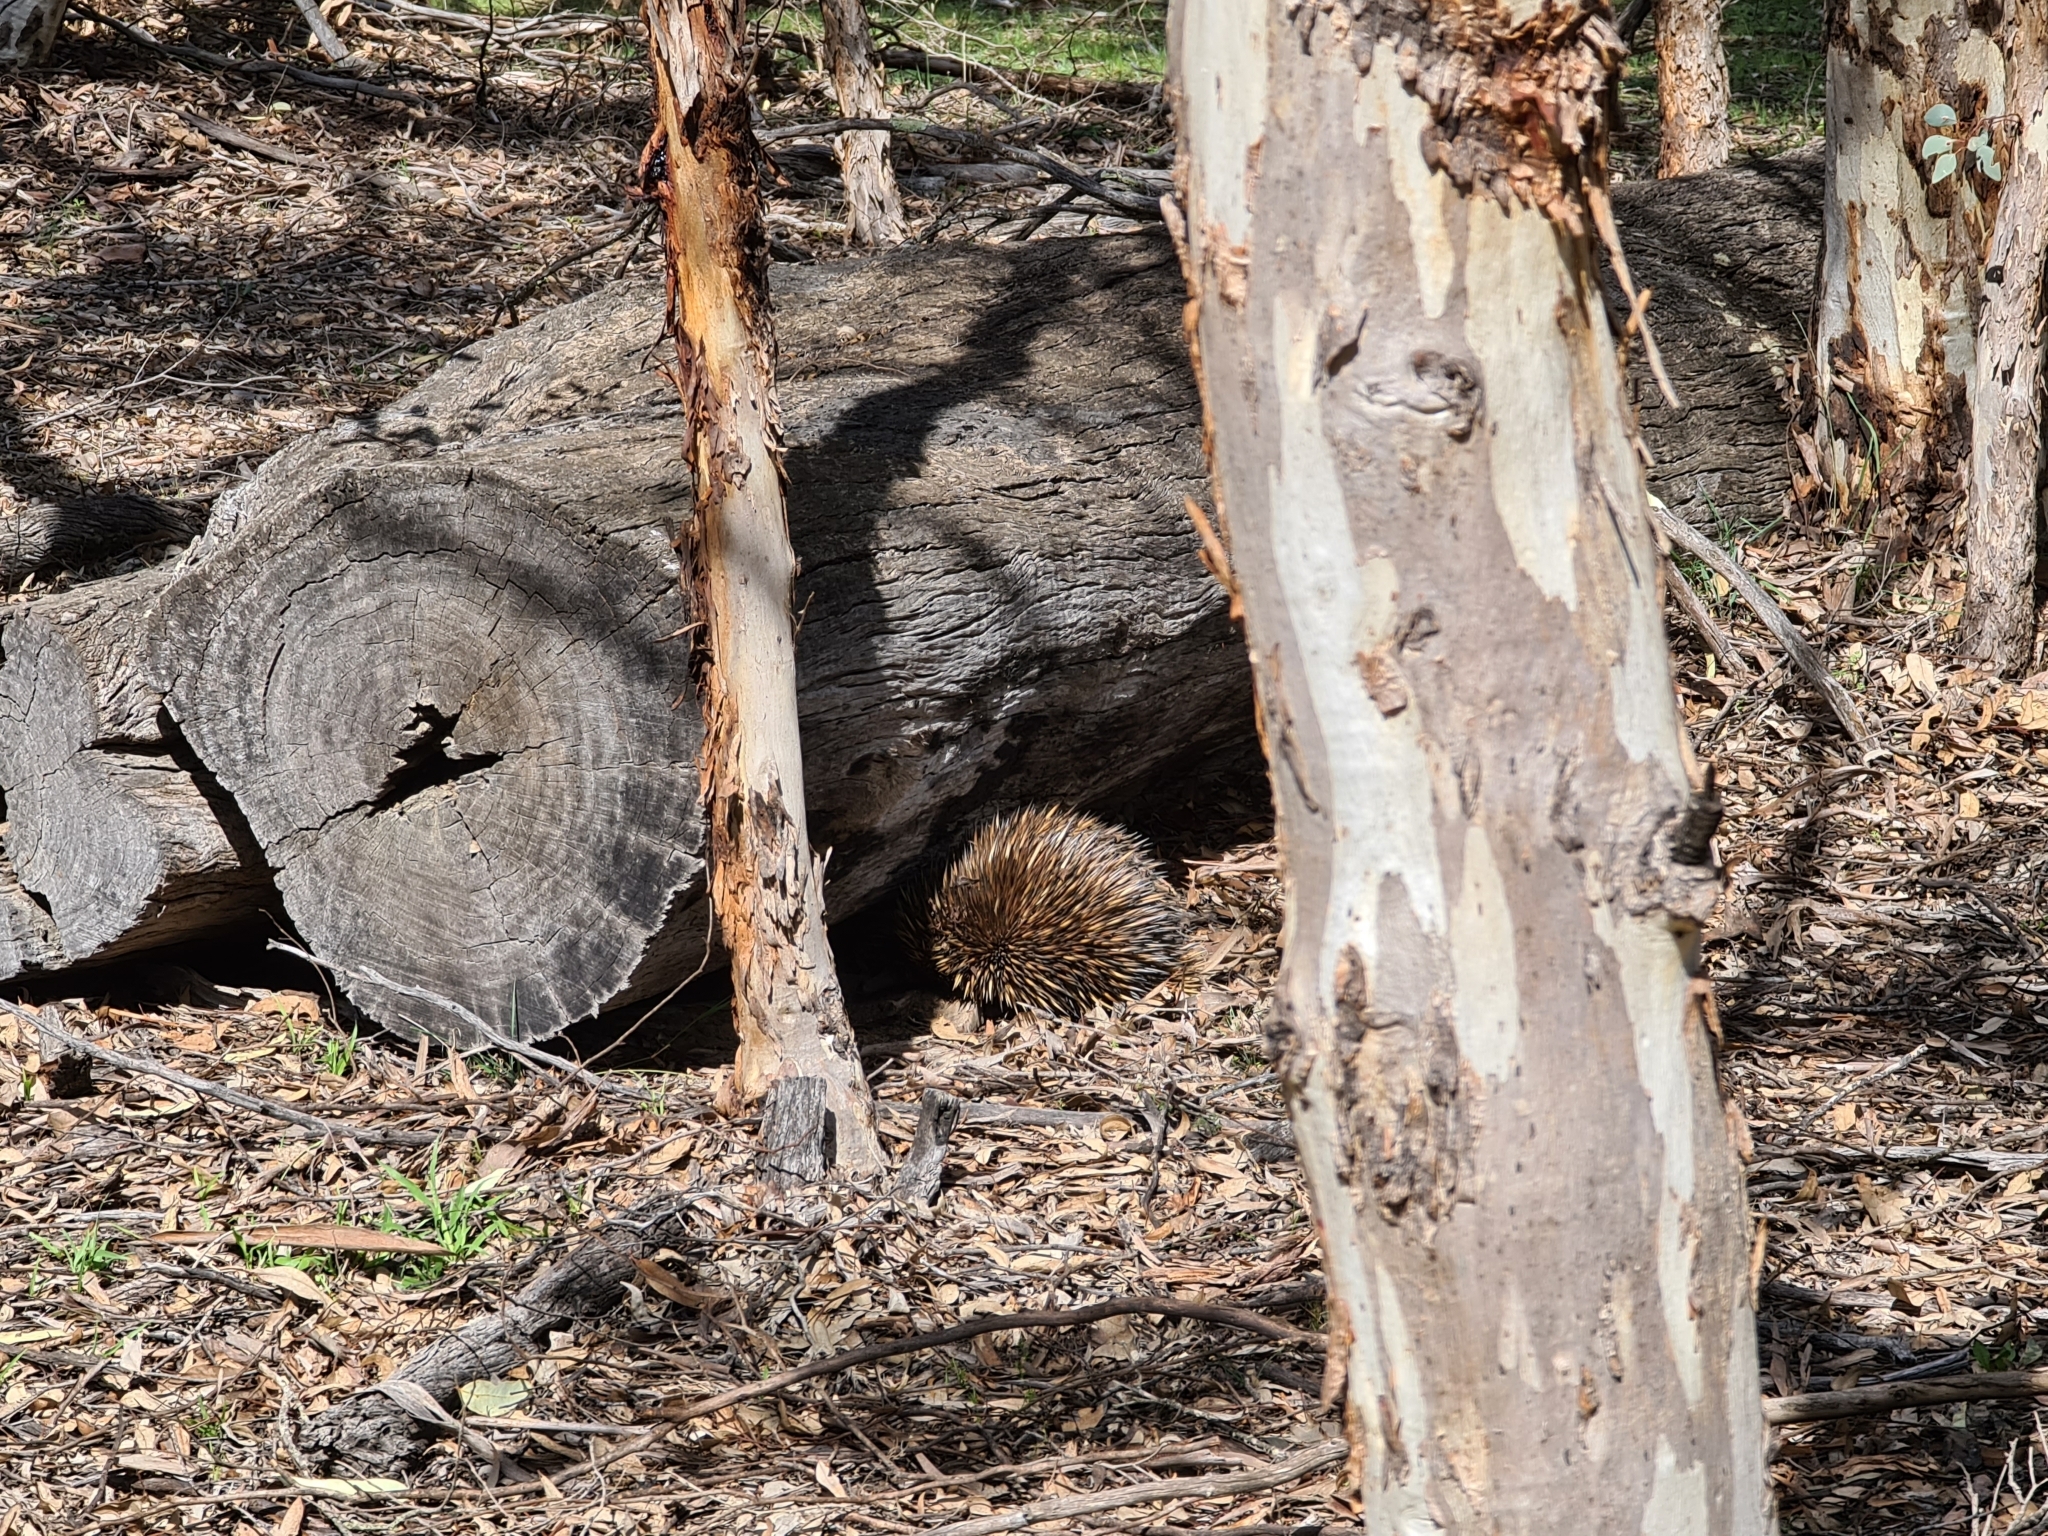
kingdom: Animalia
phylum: Chordata
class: Mammalia
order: Monotremata
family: Tachyglossidae
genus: Tachyglossus
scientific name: Tachyglossus aculeatus
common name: Short-beaked echidna
